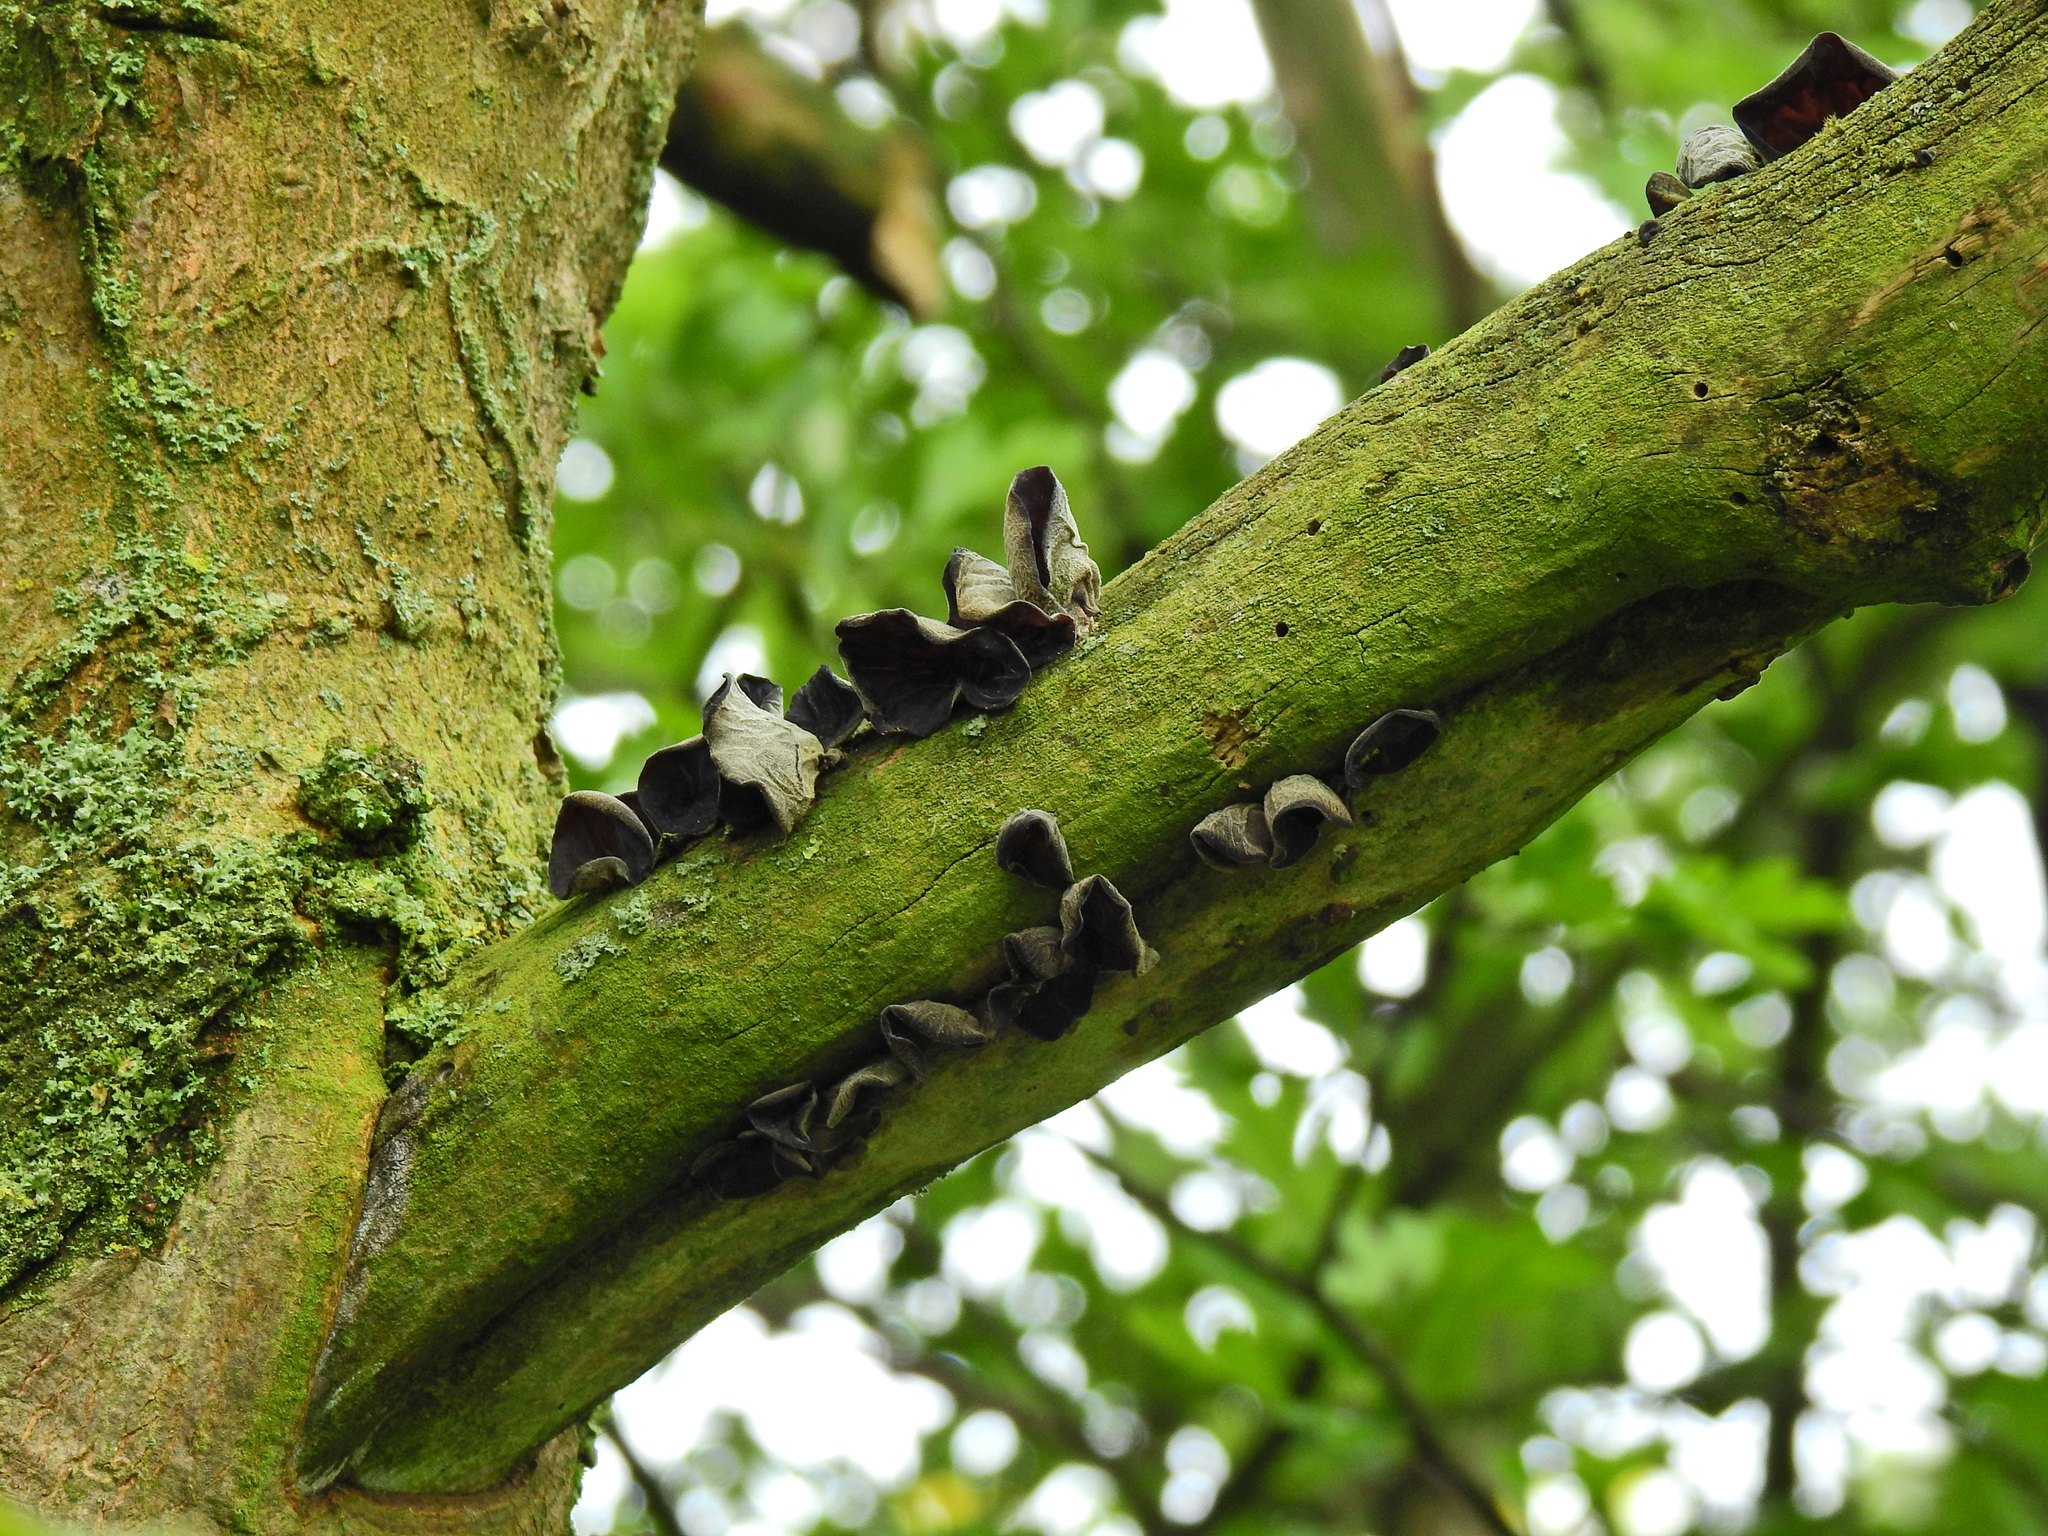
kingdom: Fungi
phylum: Basidiomycota
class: Agaricomycetes
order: Auriculariales
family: Auriculariaceae
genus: Auricularia
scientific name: Auricularia auricula-judae
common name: Jelly ear
